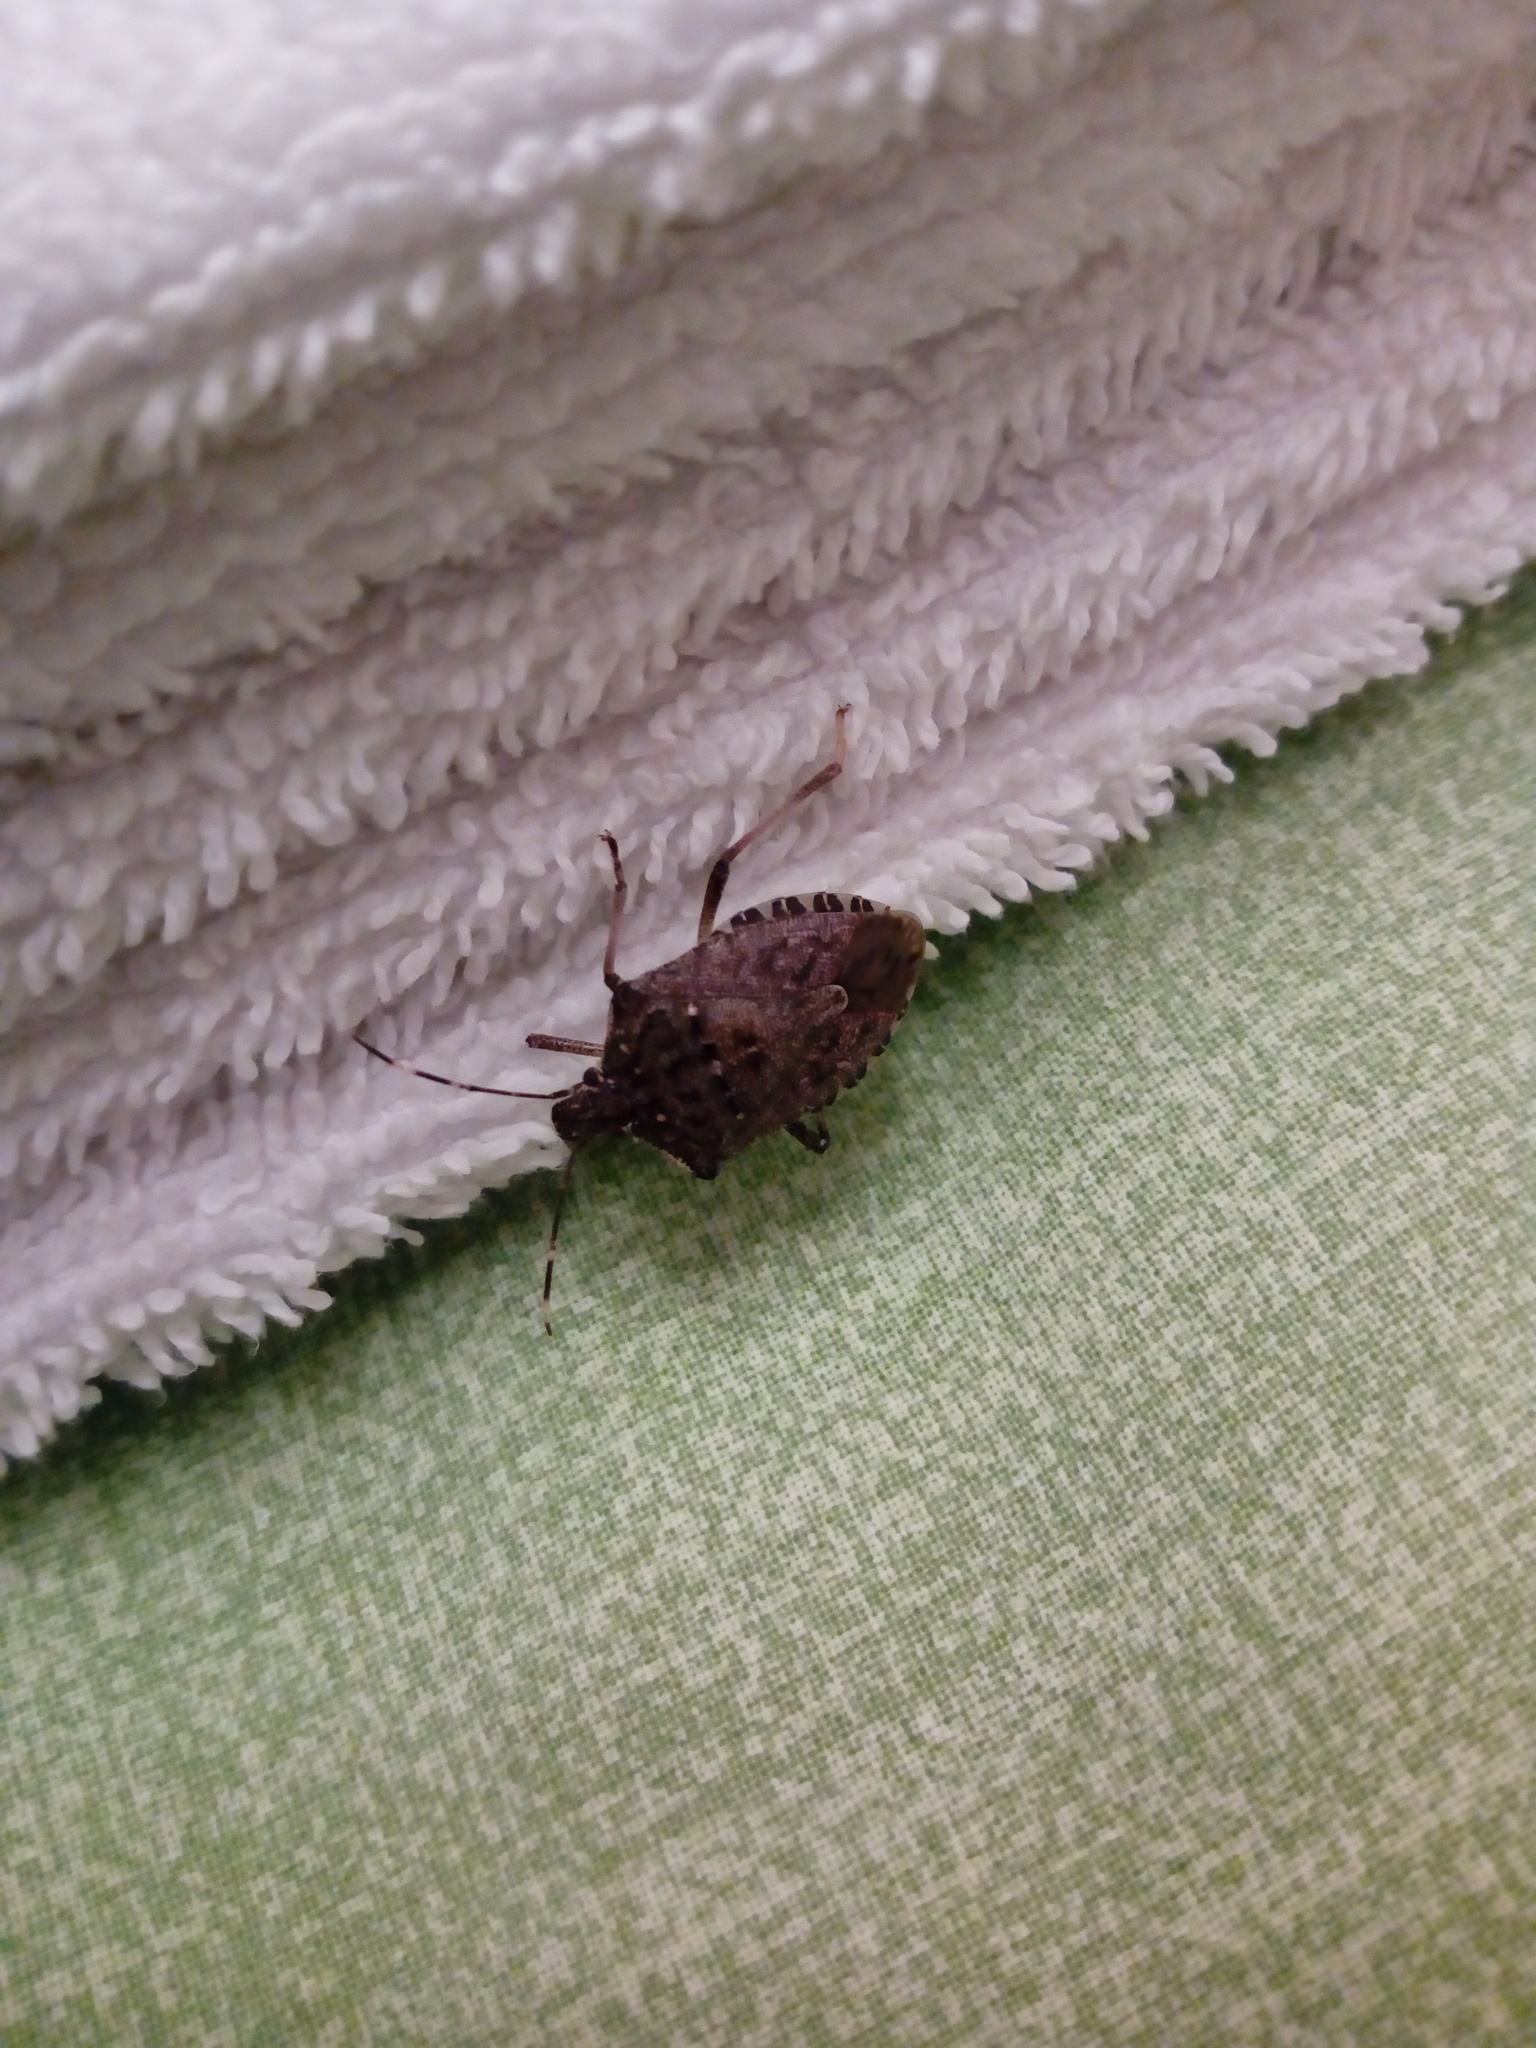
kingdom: Animalia
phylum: Arthropoda
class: Insecta
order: Hemiptera
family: Pentatomidae
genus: Halyomorpha
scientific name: Halyomorpha halys
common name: Brown marmorated stink bug
